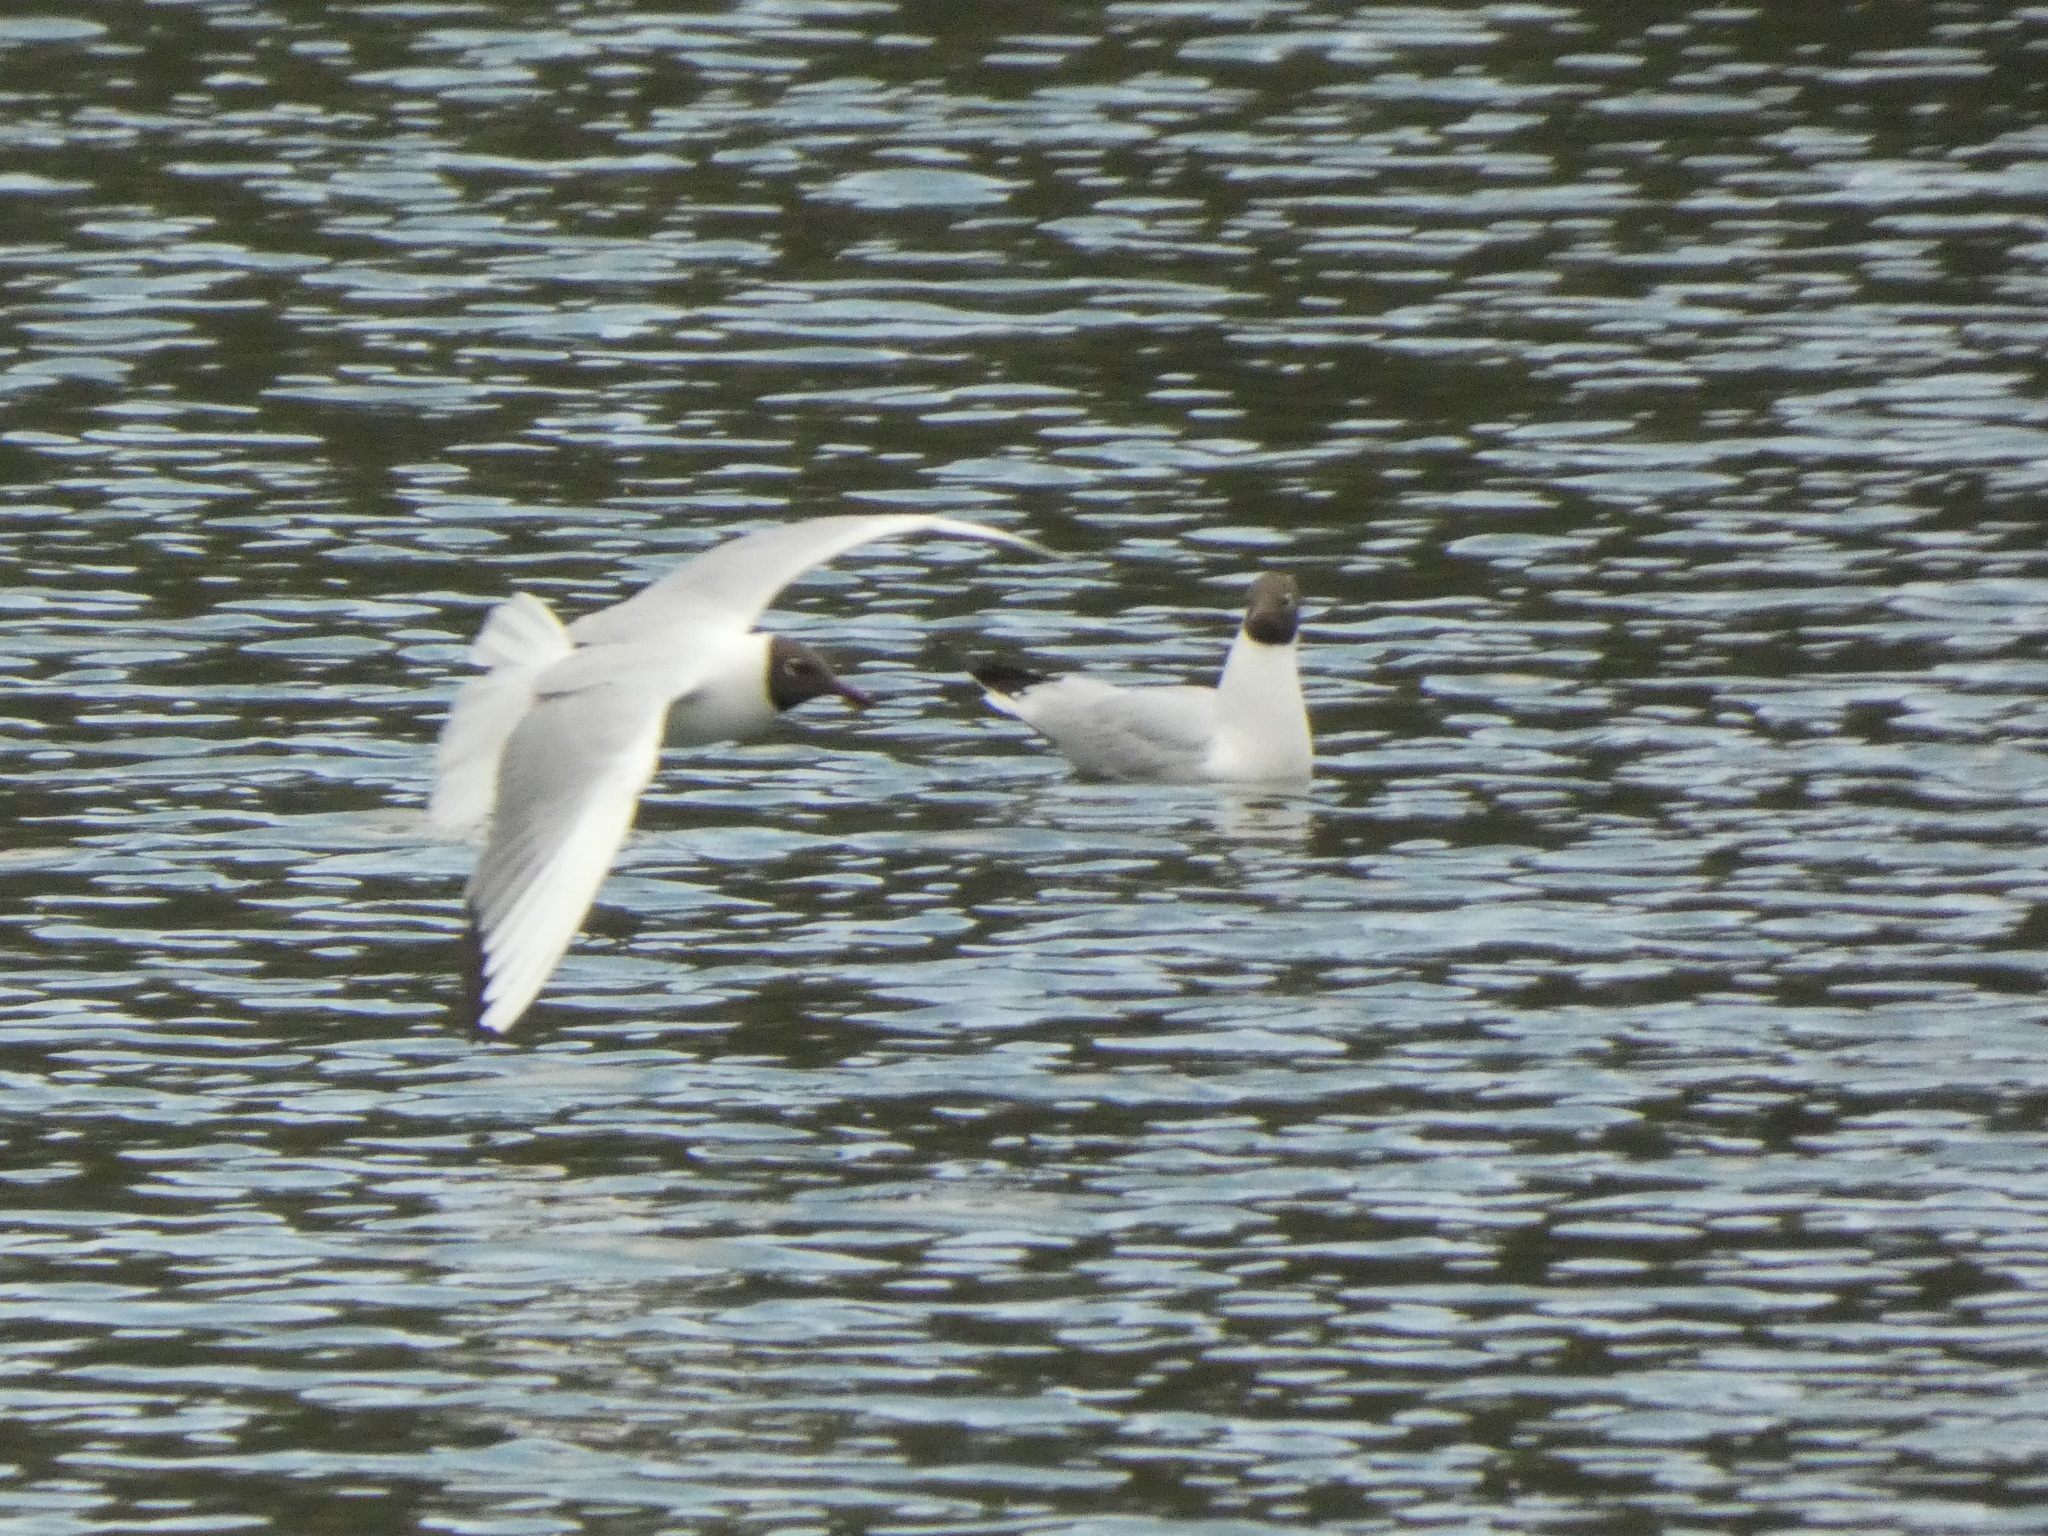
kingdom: Animalia
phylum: Chordata
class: Aves
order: Charadriiformes
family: Laridae
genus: Chroicocephalus
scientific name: Chroicocephalus ridibundus
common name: Black-headed gull
